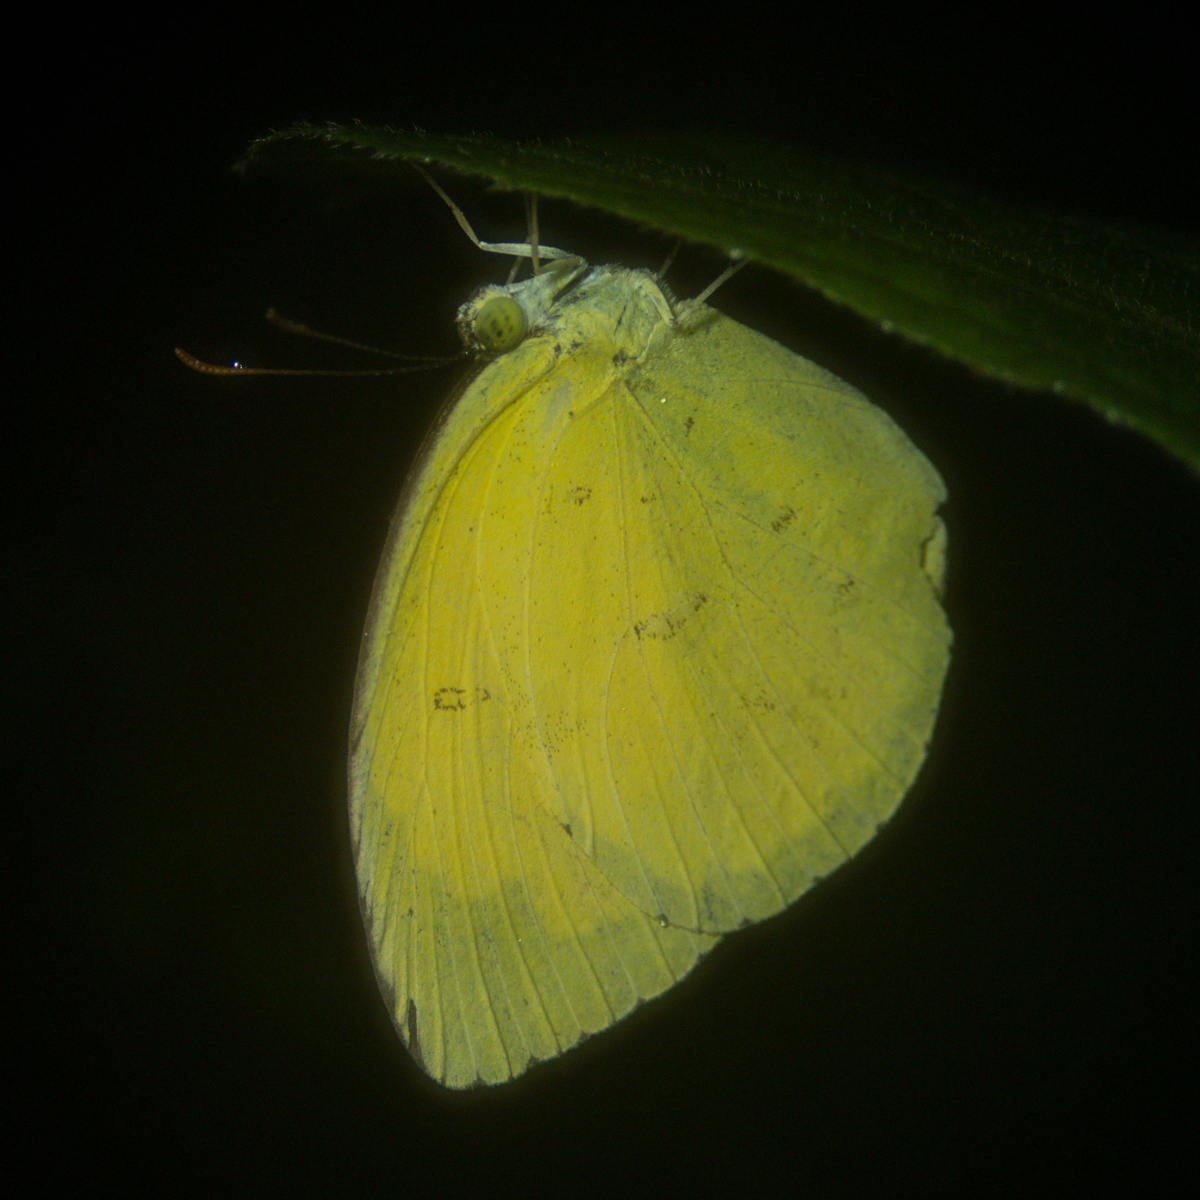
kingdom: Animalia
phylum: Arthropoda
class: Insecta
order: Lepidoptera
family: Pieridae
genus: Eurema
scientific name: Eurema hecabe
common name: Pale grass yellow
